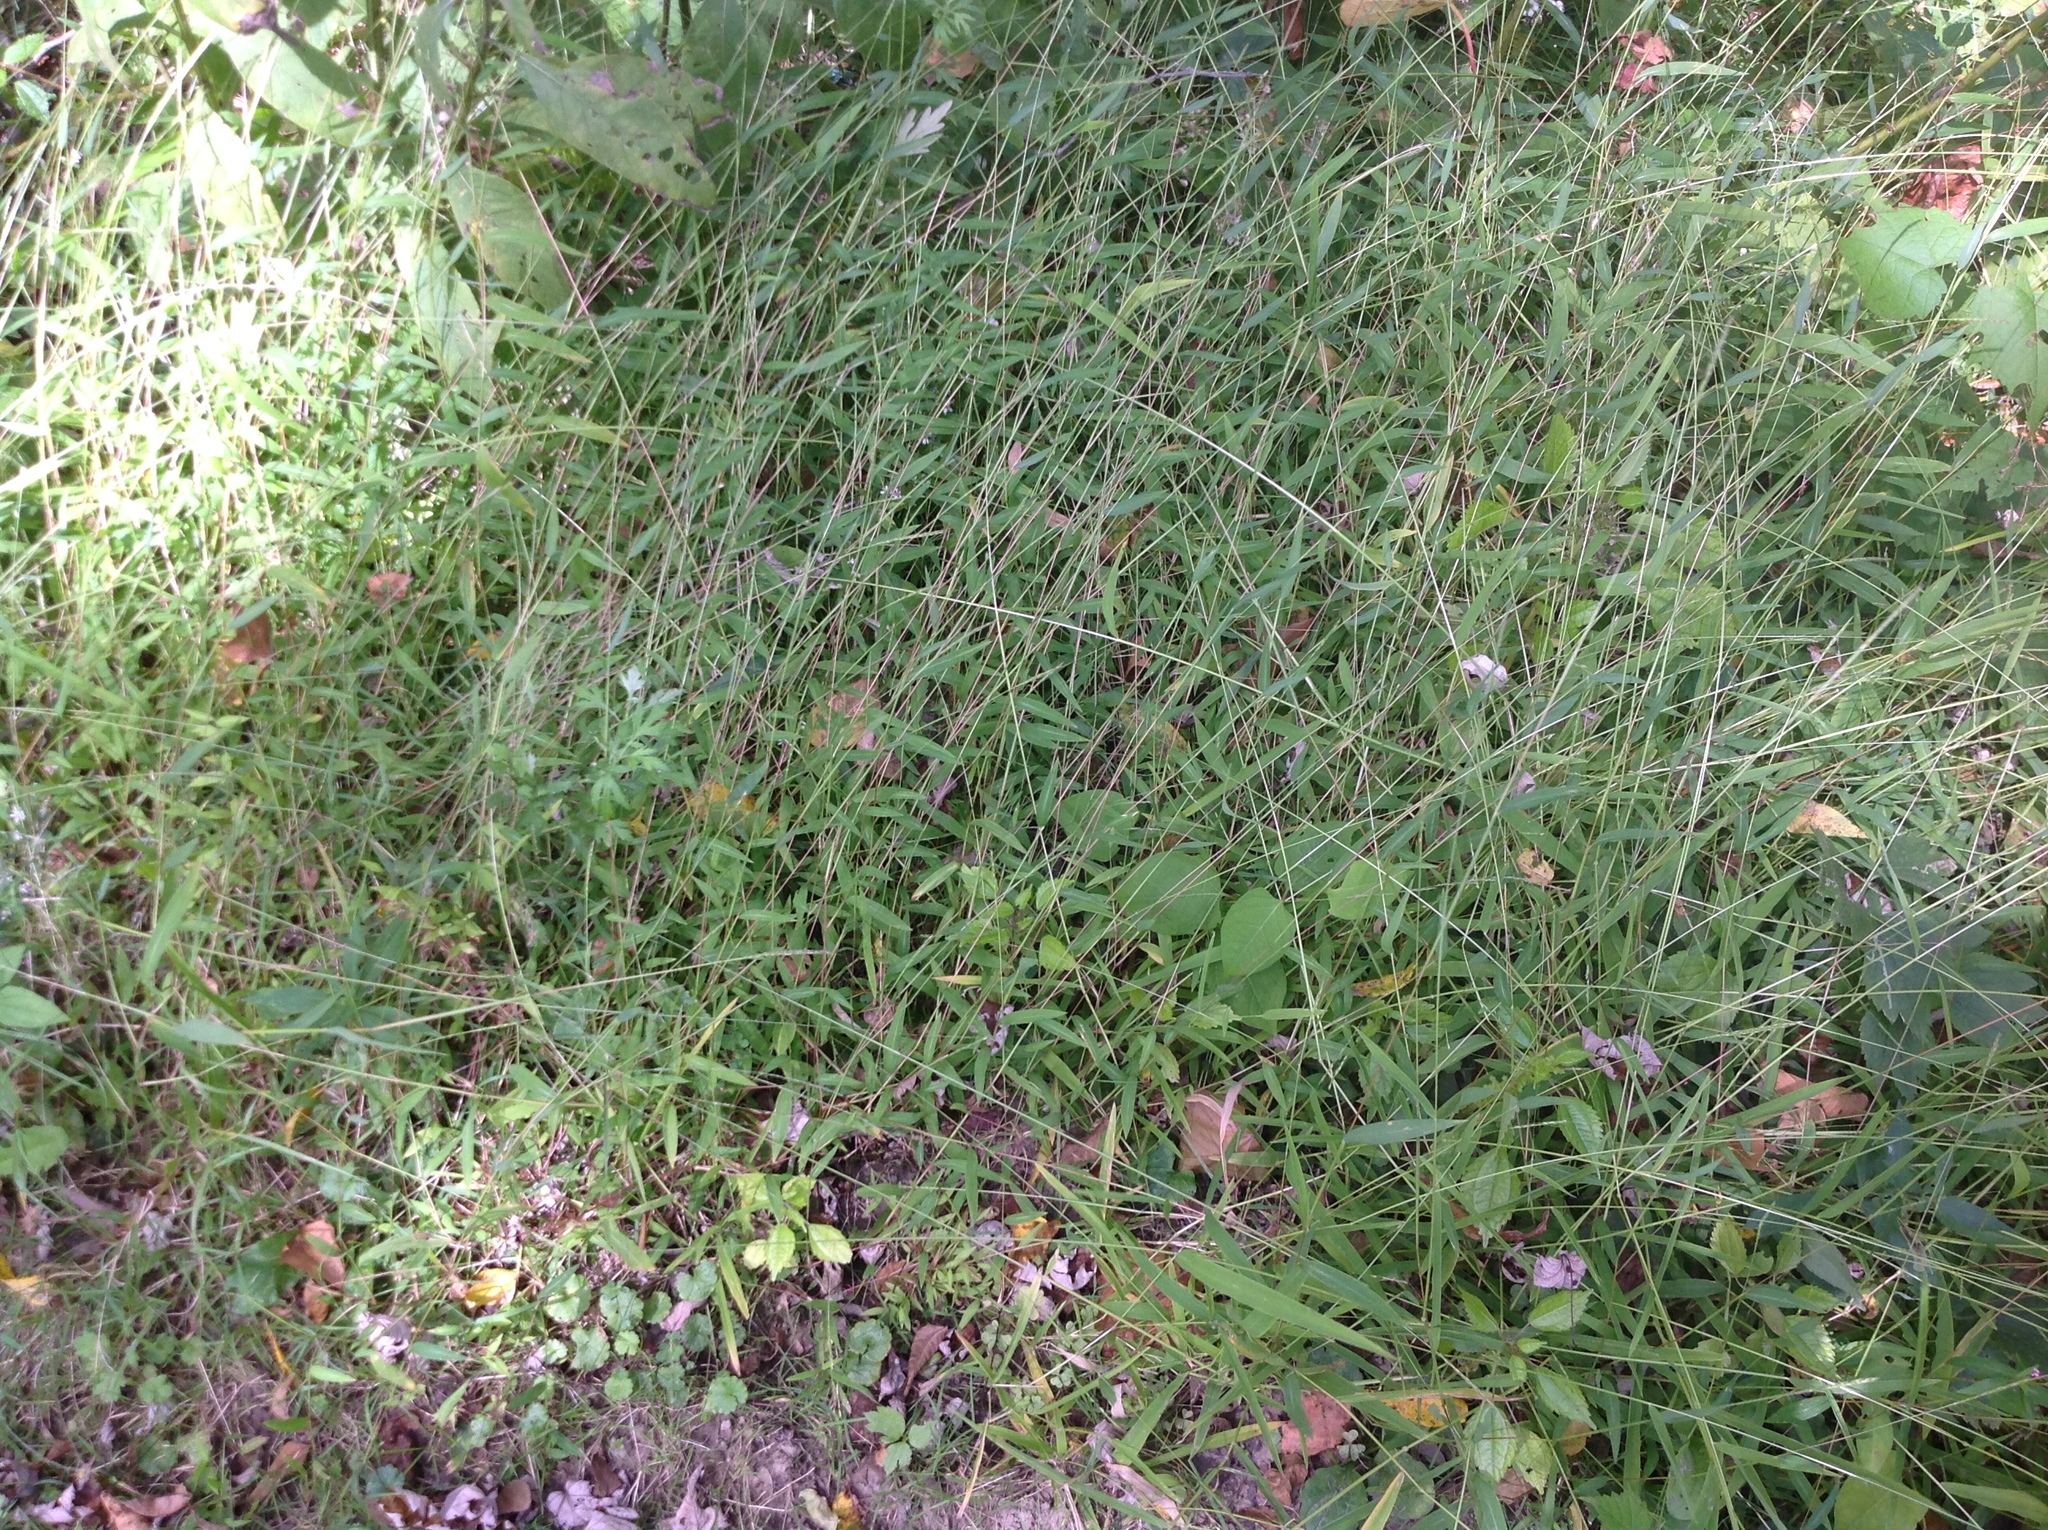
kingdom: Plantae
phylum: Tracheophyta
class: Liliopsida
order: Poales
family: Poaceae
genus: Microstegium
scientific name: Microstegium vimineum
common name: Japanese stiltgrass
